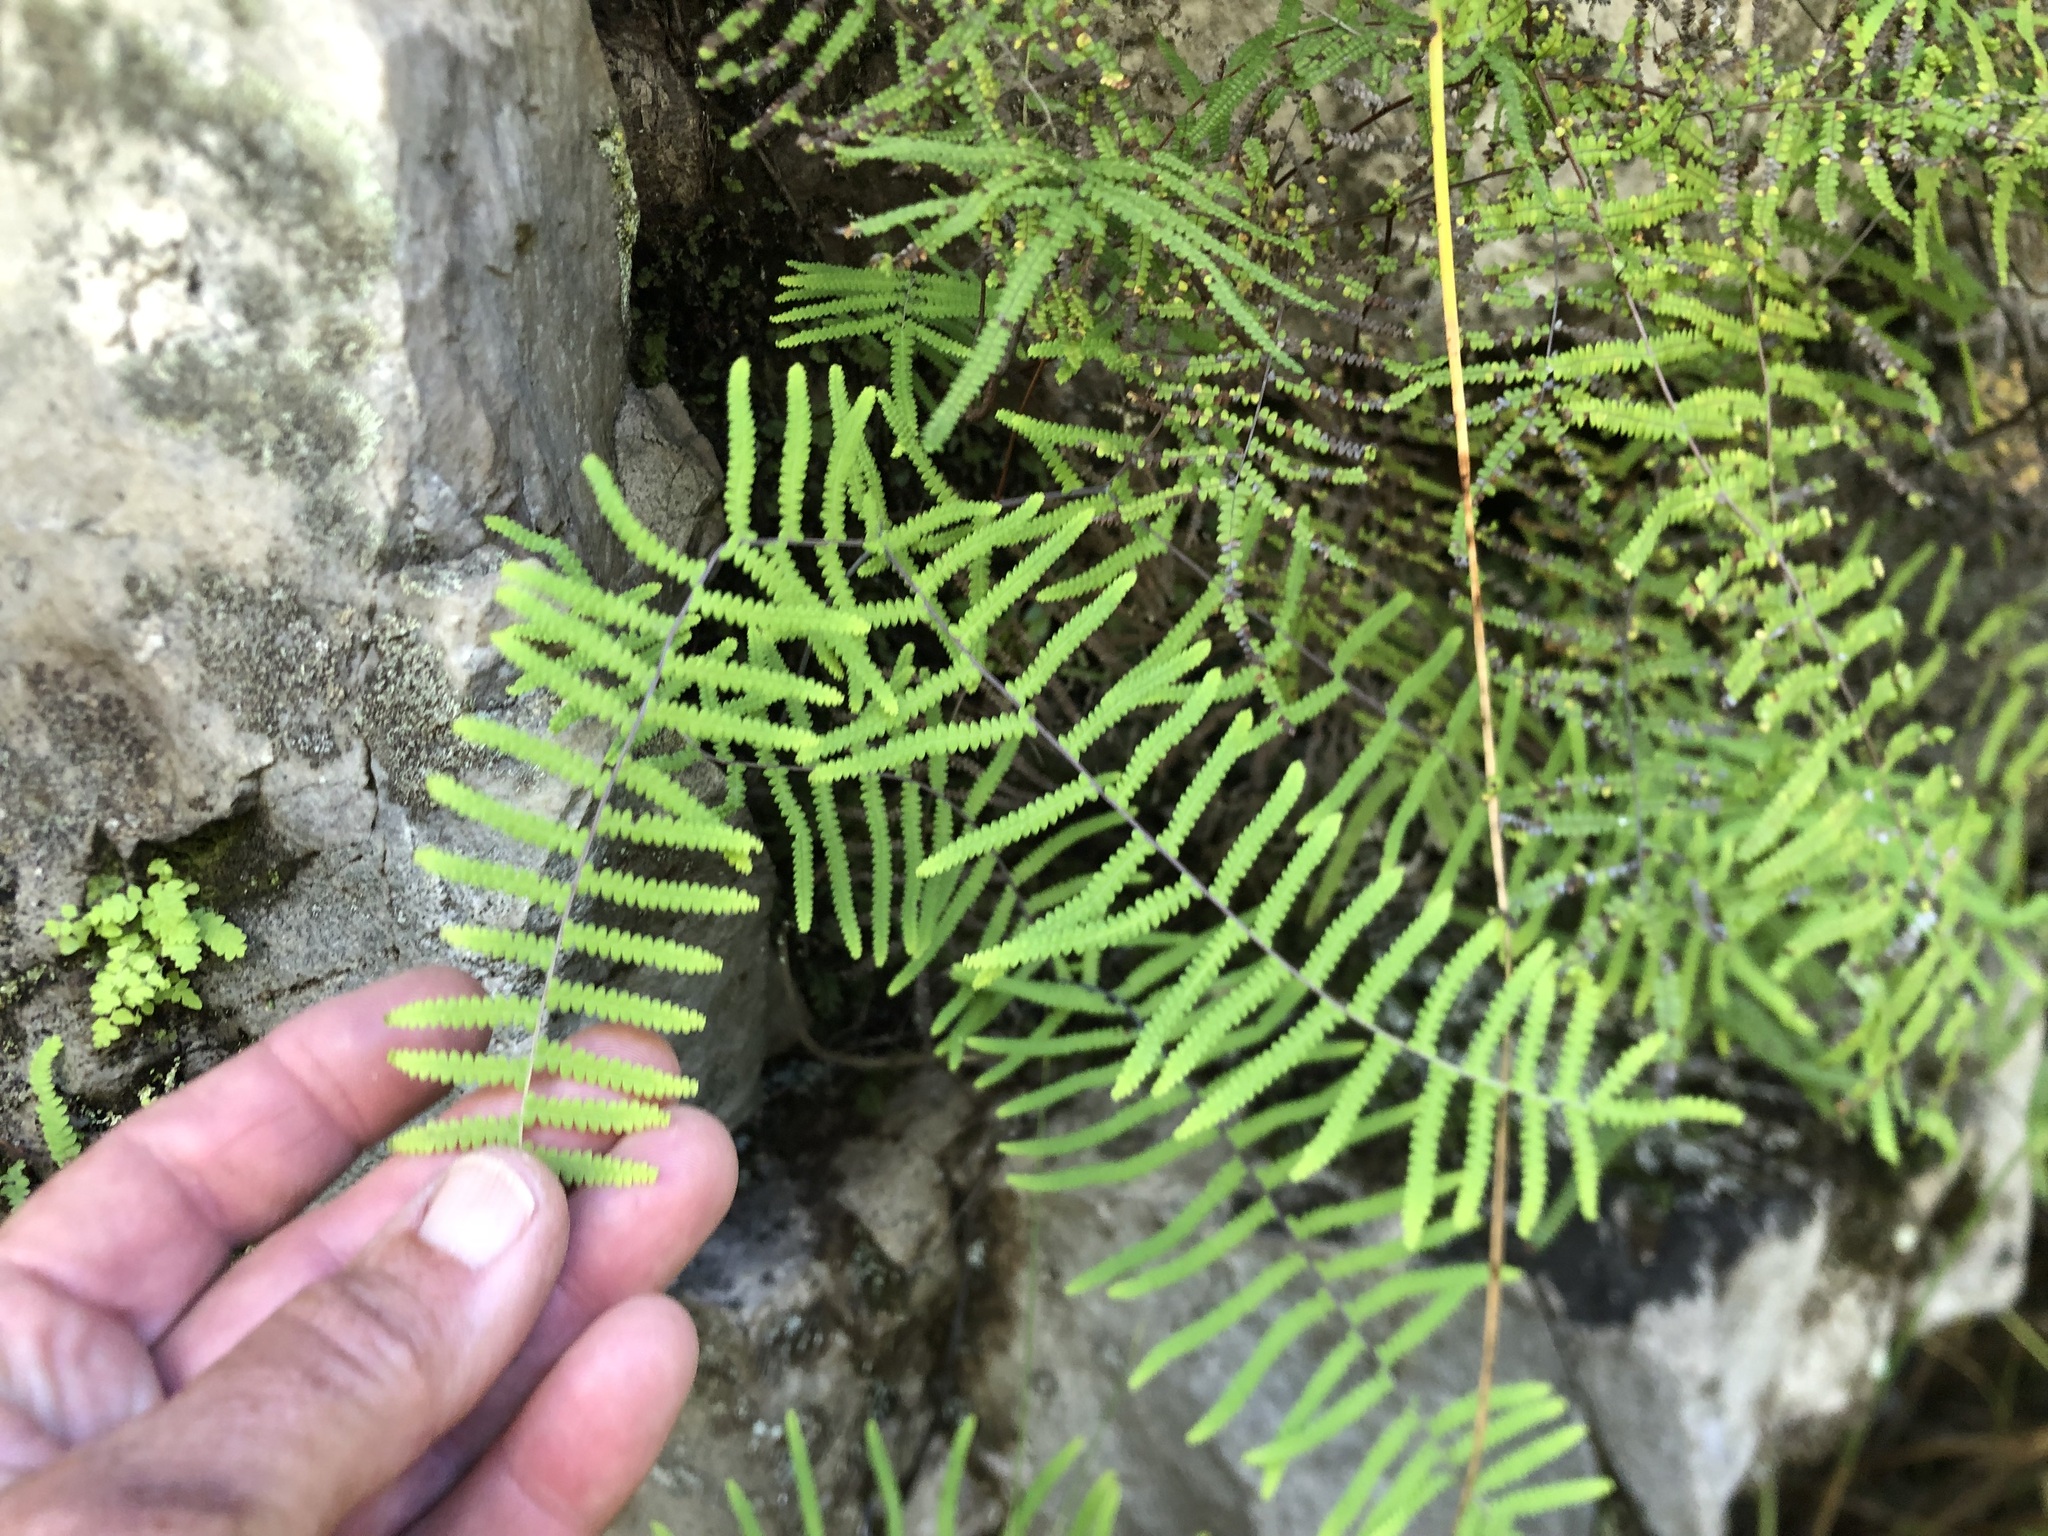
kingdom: Plantae
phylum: Tracheophyta
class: Polypodiopsida
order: Gleicheniales
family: Gleicheniaceae
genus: Gleichenia
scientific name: Gleichenia polypodioides
